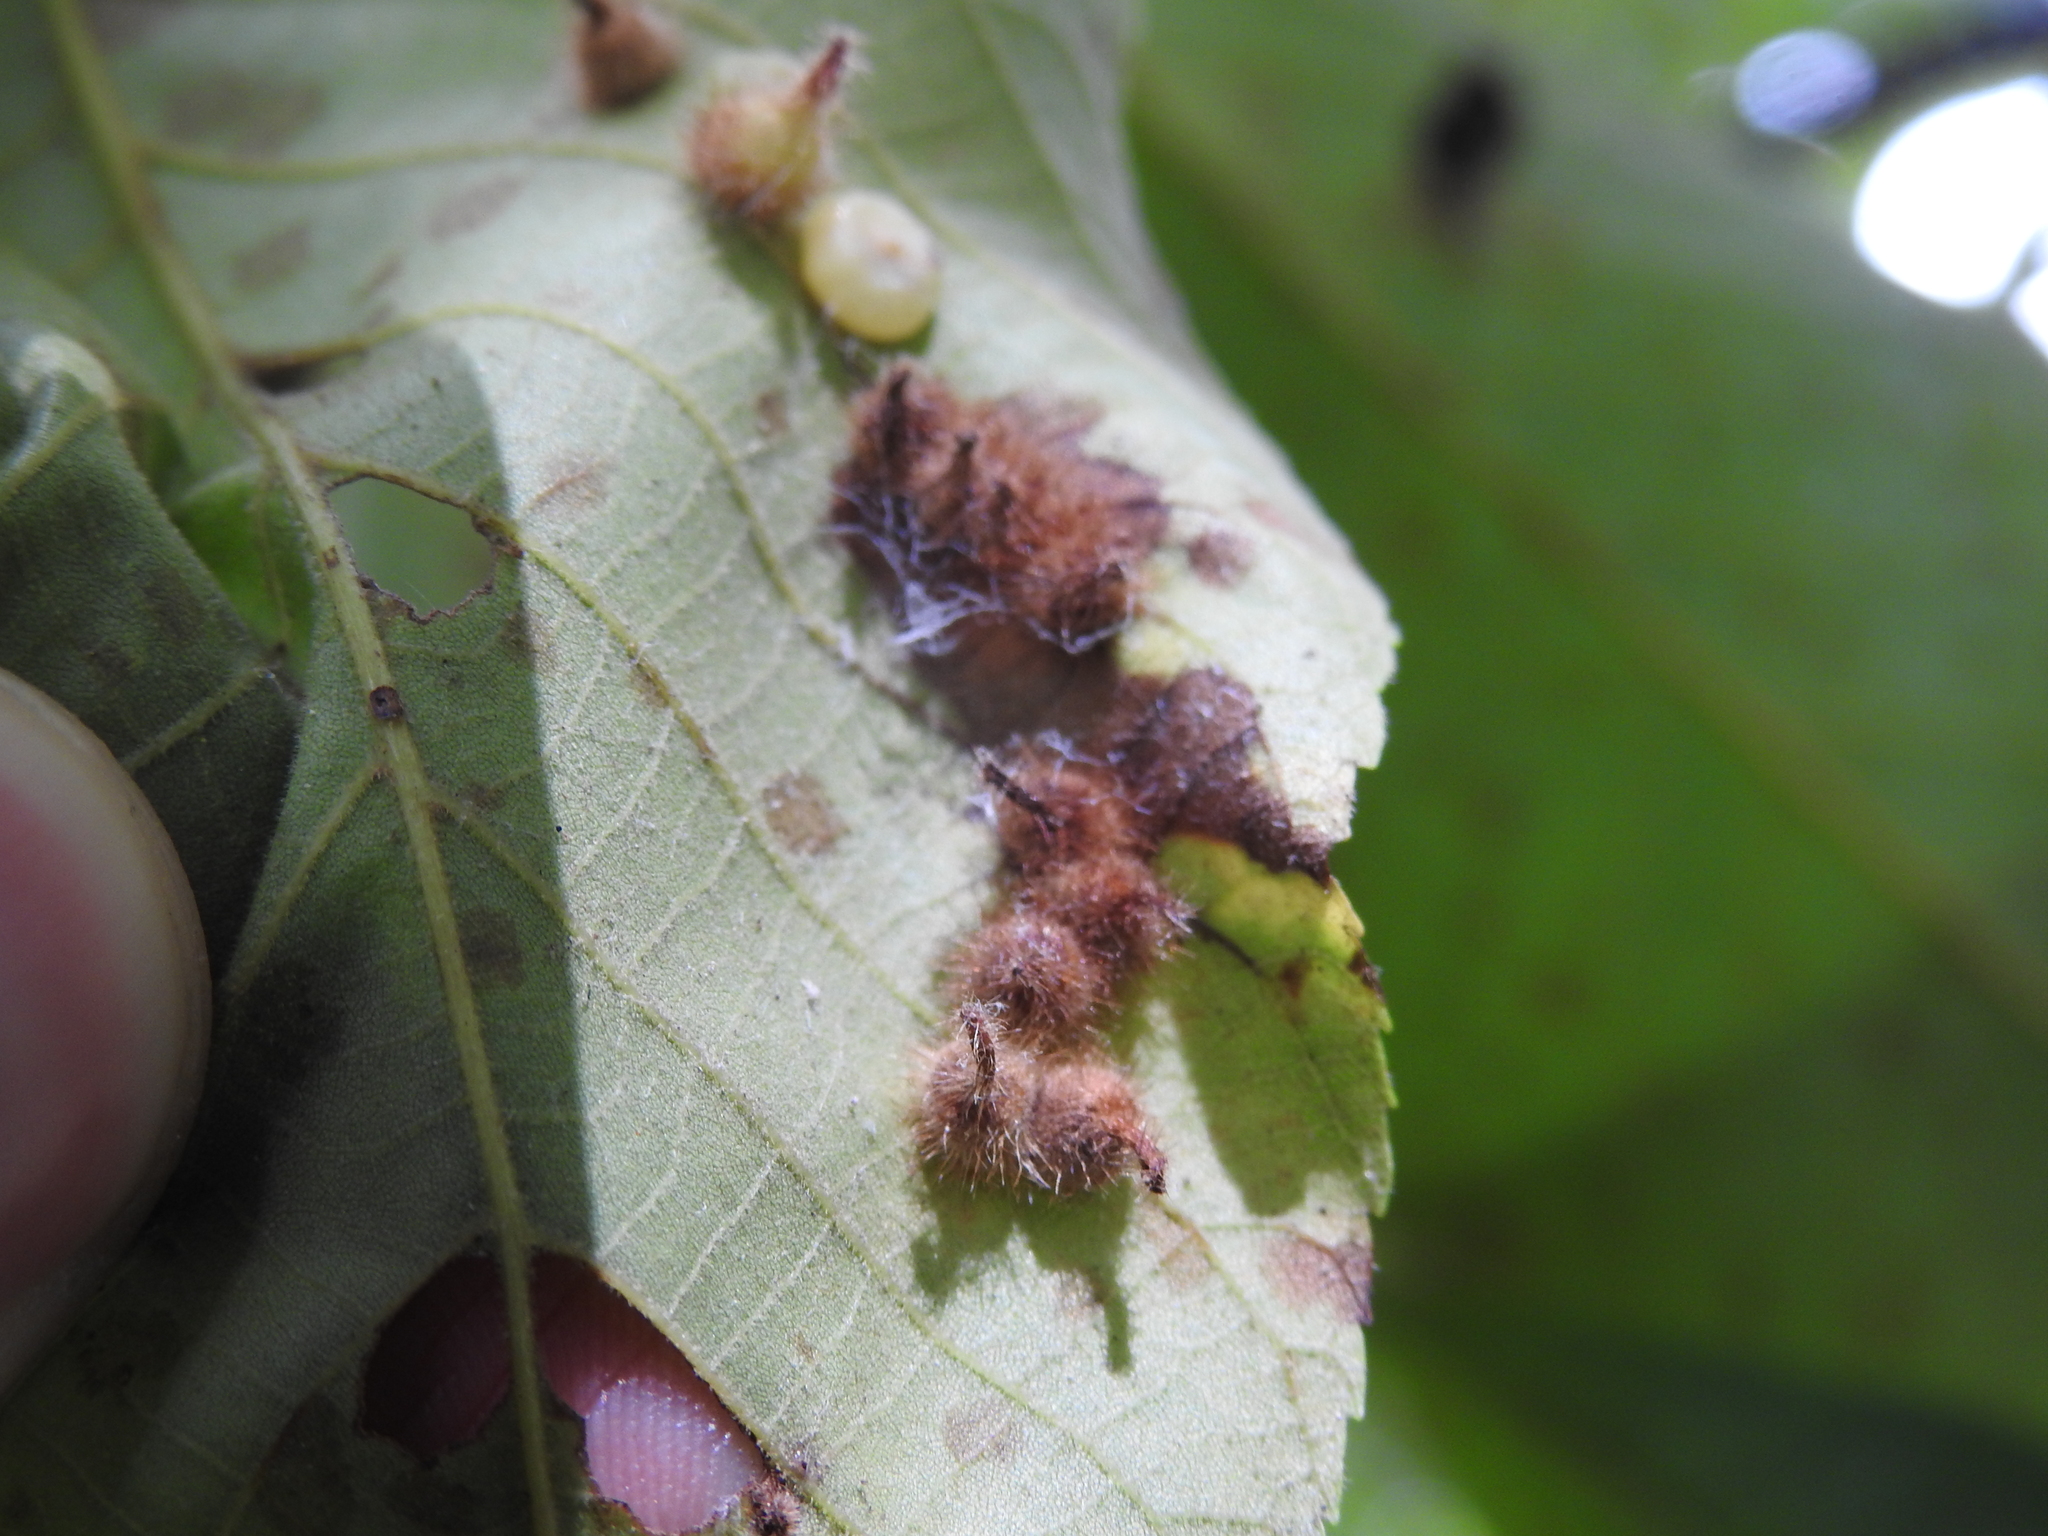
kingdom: Animalia
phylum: Arthropoda
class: Insecta
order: Diptera
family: Cecidomyiidae
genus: Caryomyia
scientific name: Caryomyia echinata
